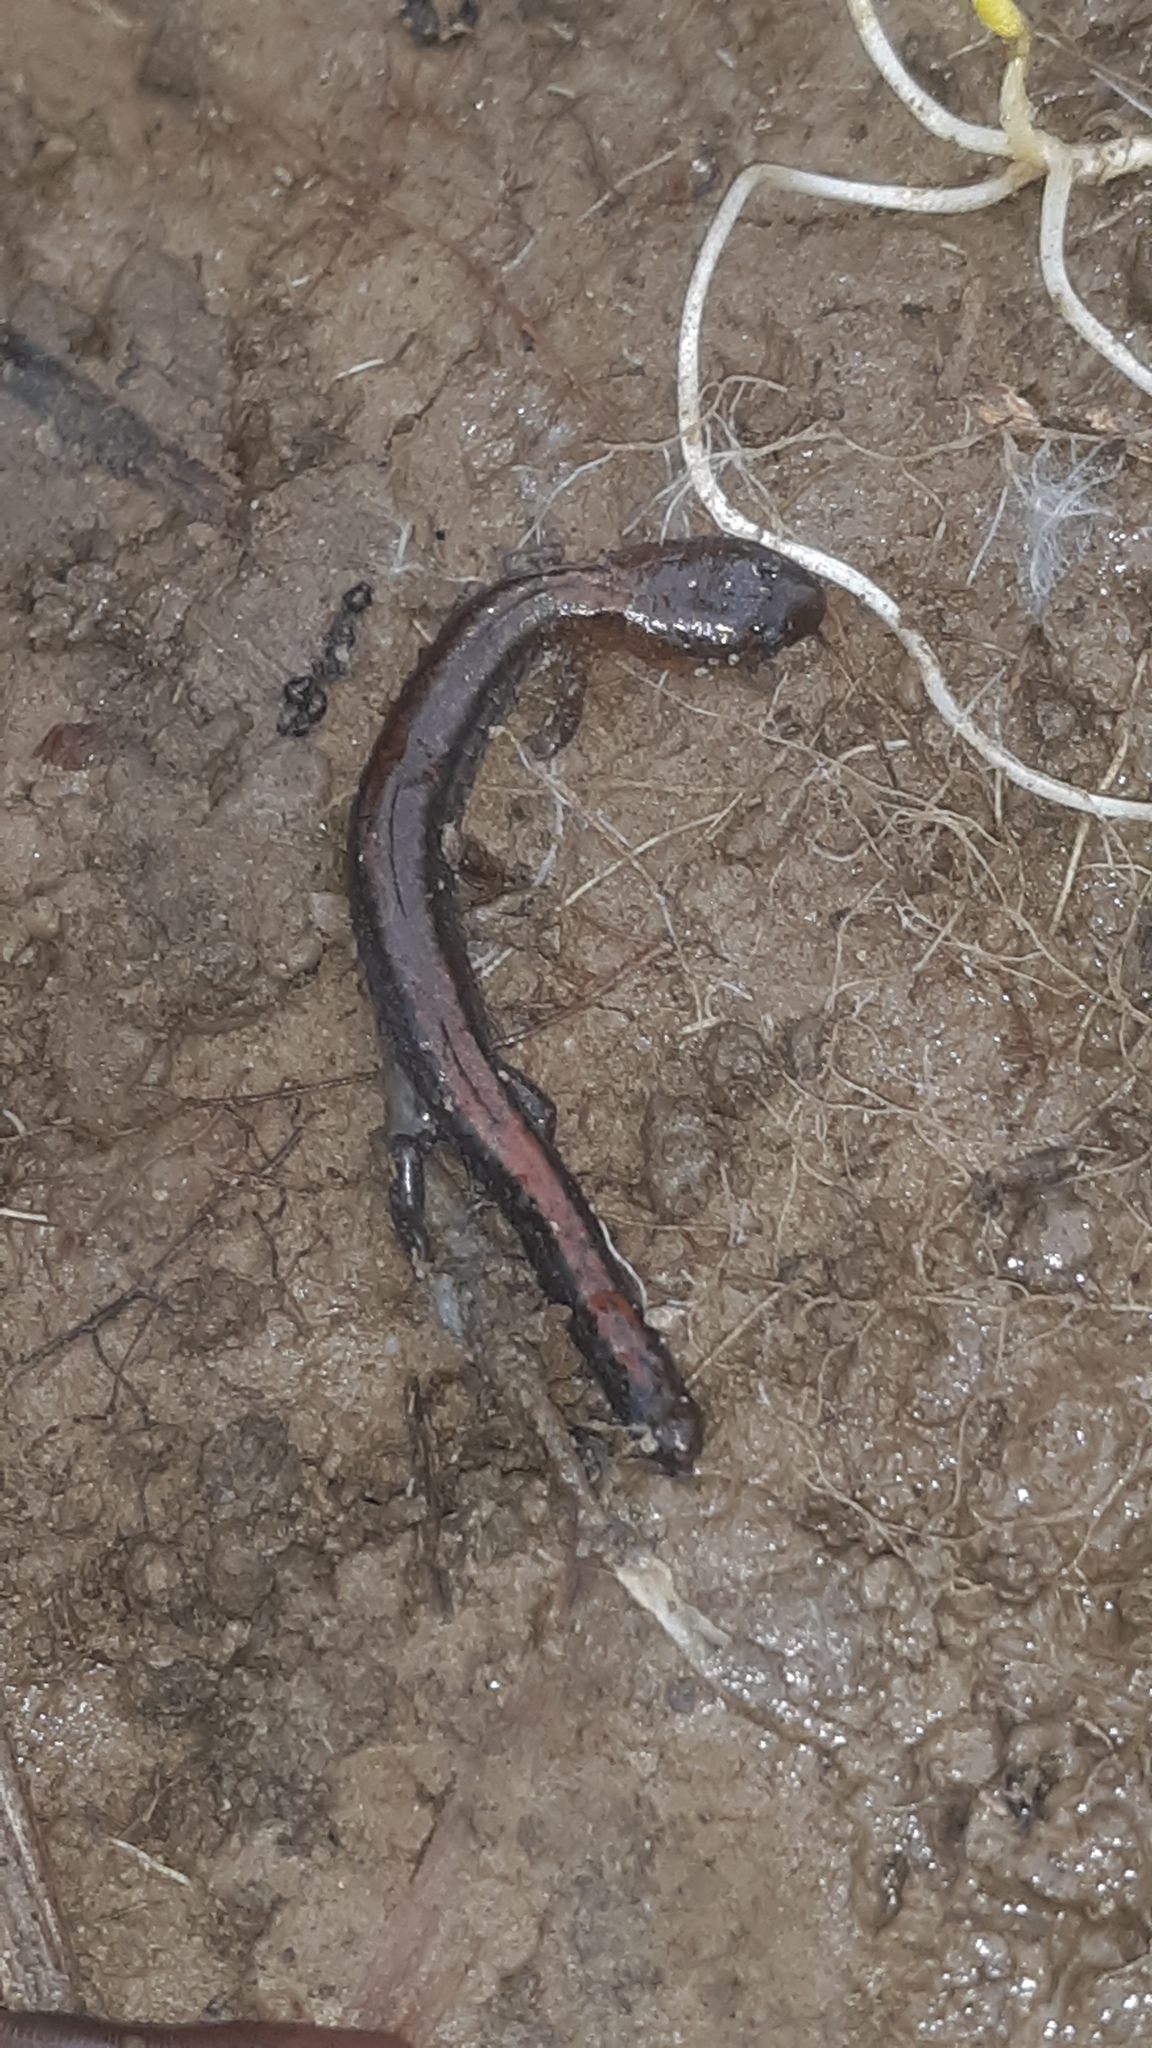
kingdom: Animalia
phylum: Chordata
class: Amphibia
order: Caudata
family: Plethodontidae
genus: Plethodon
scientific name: Plethodon cinereus
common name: Redback salamander
